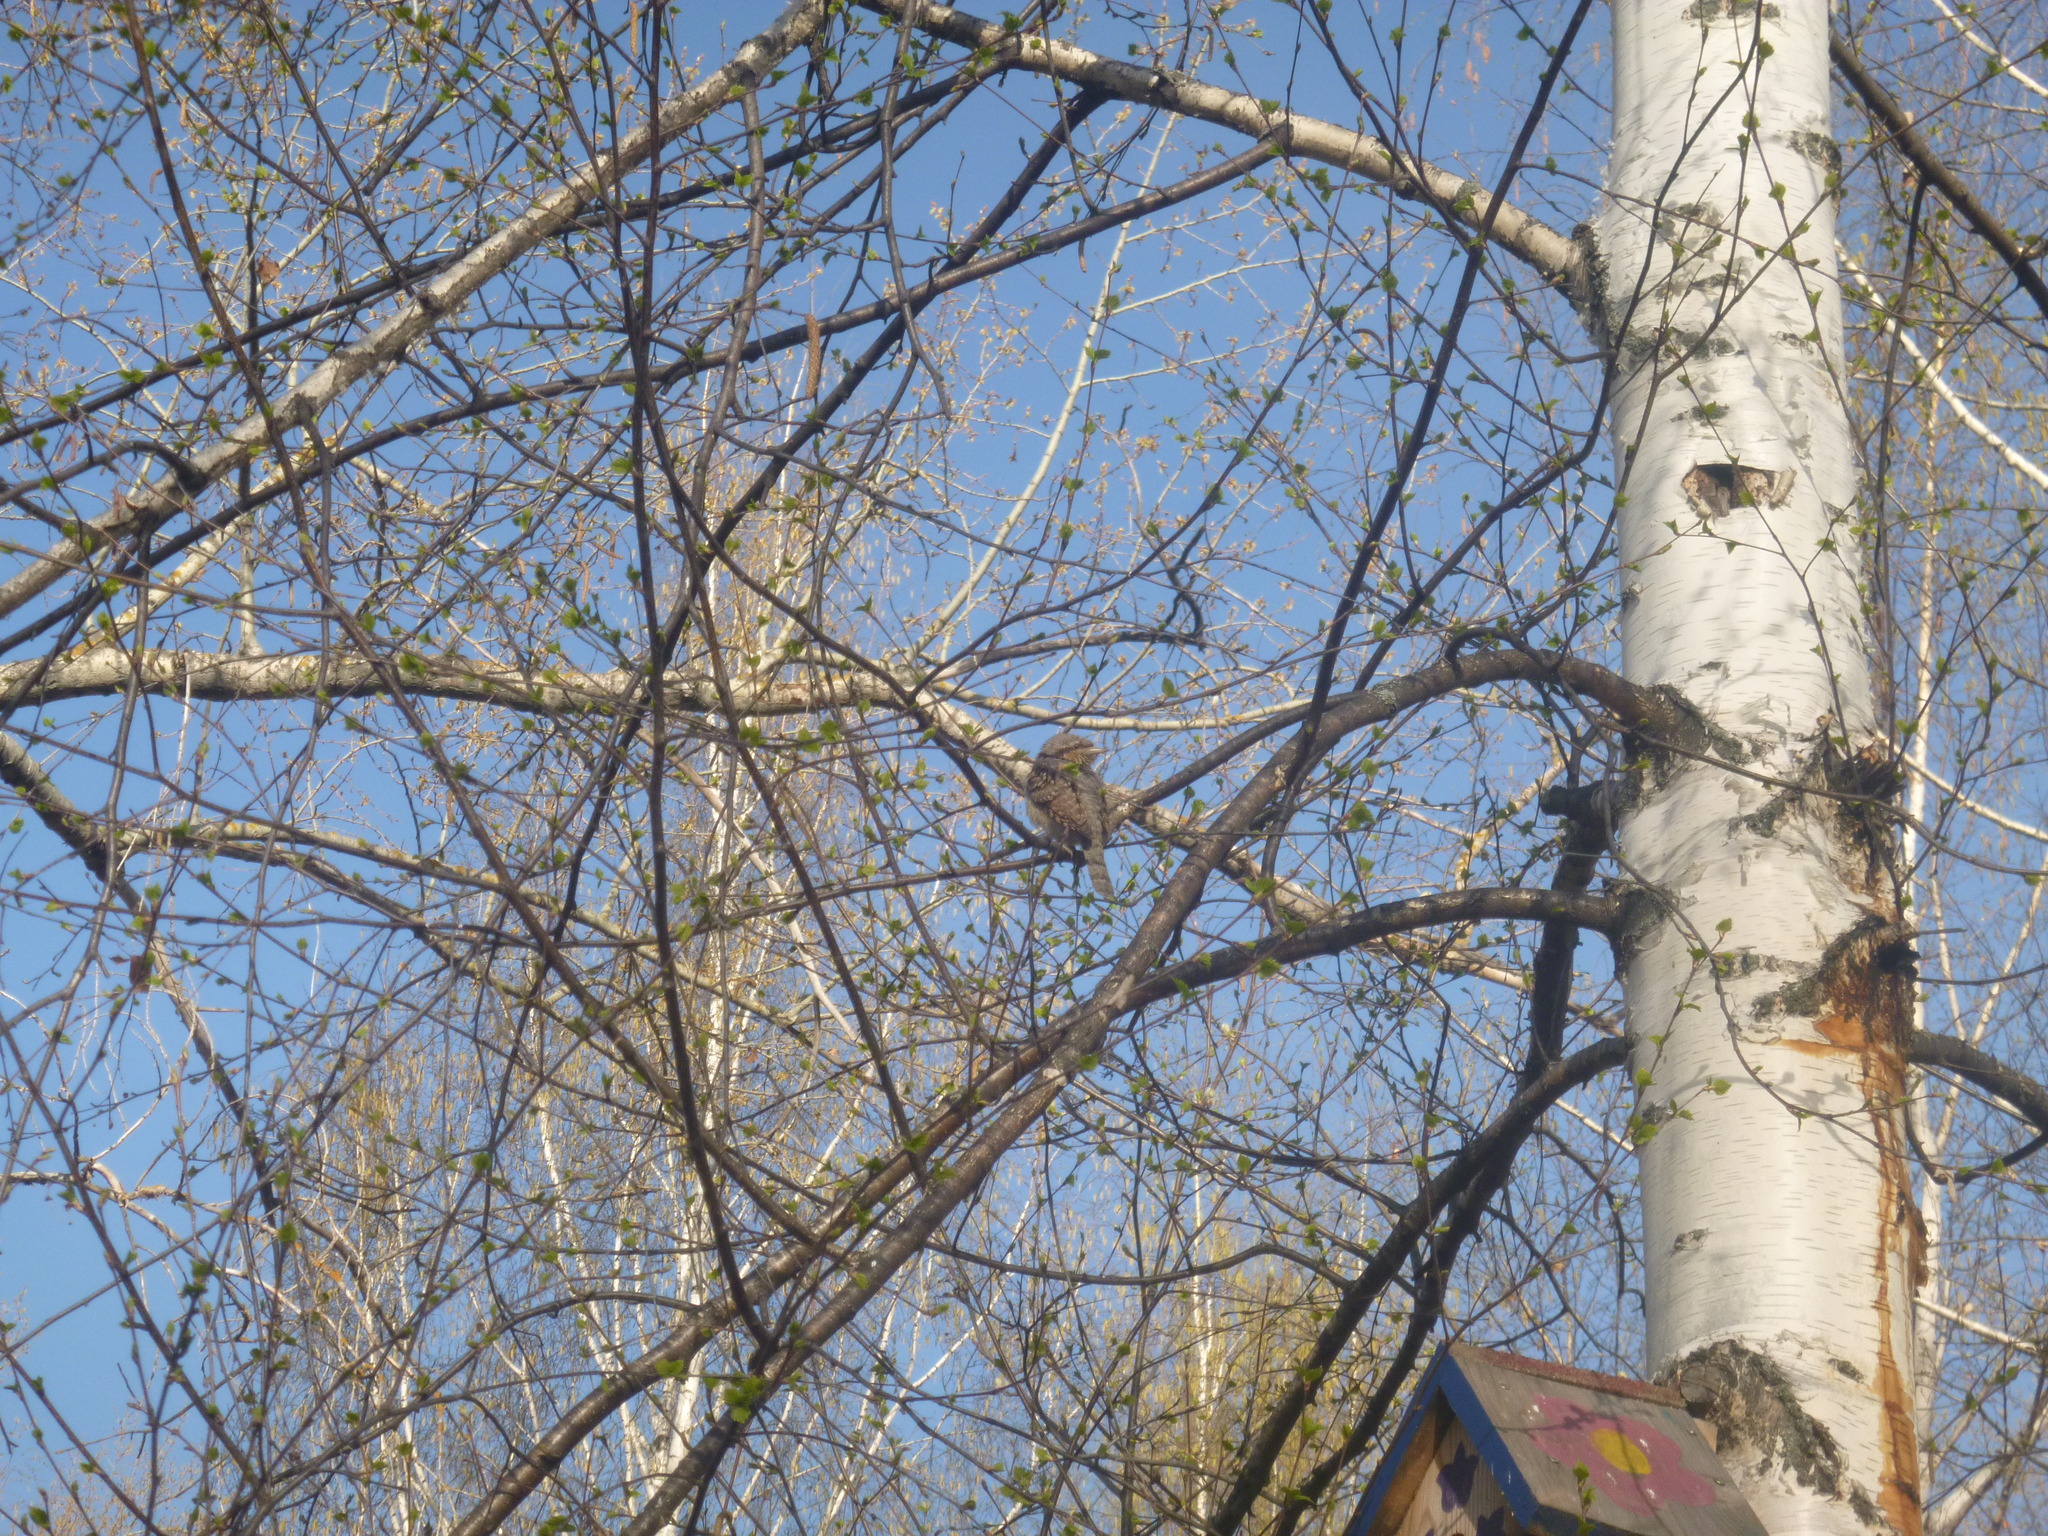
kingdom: Animalia
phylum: Chordata
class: Aves
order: Piciformes
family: Picidae
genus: Jynx
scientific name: Jynx torquilla
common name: Eurasian wryneck
